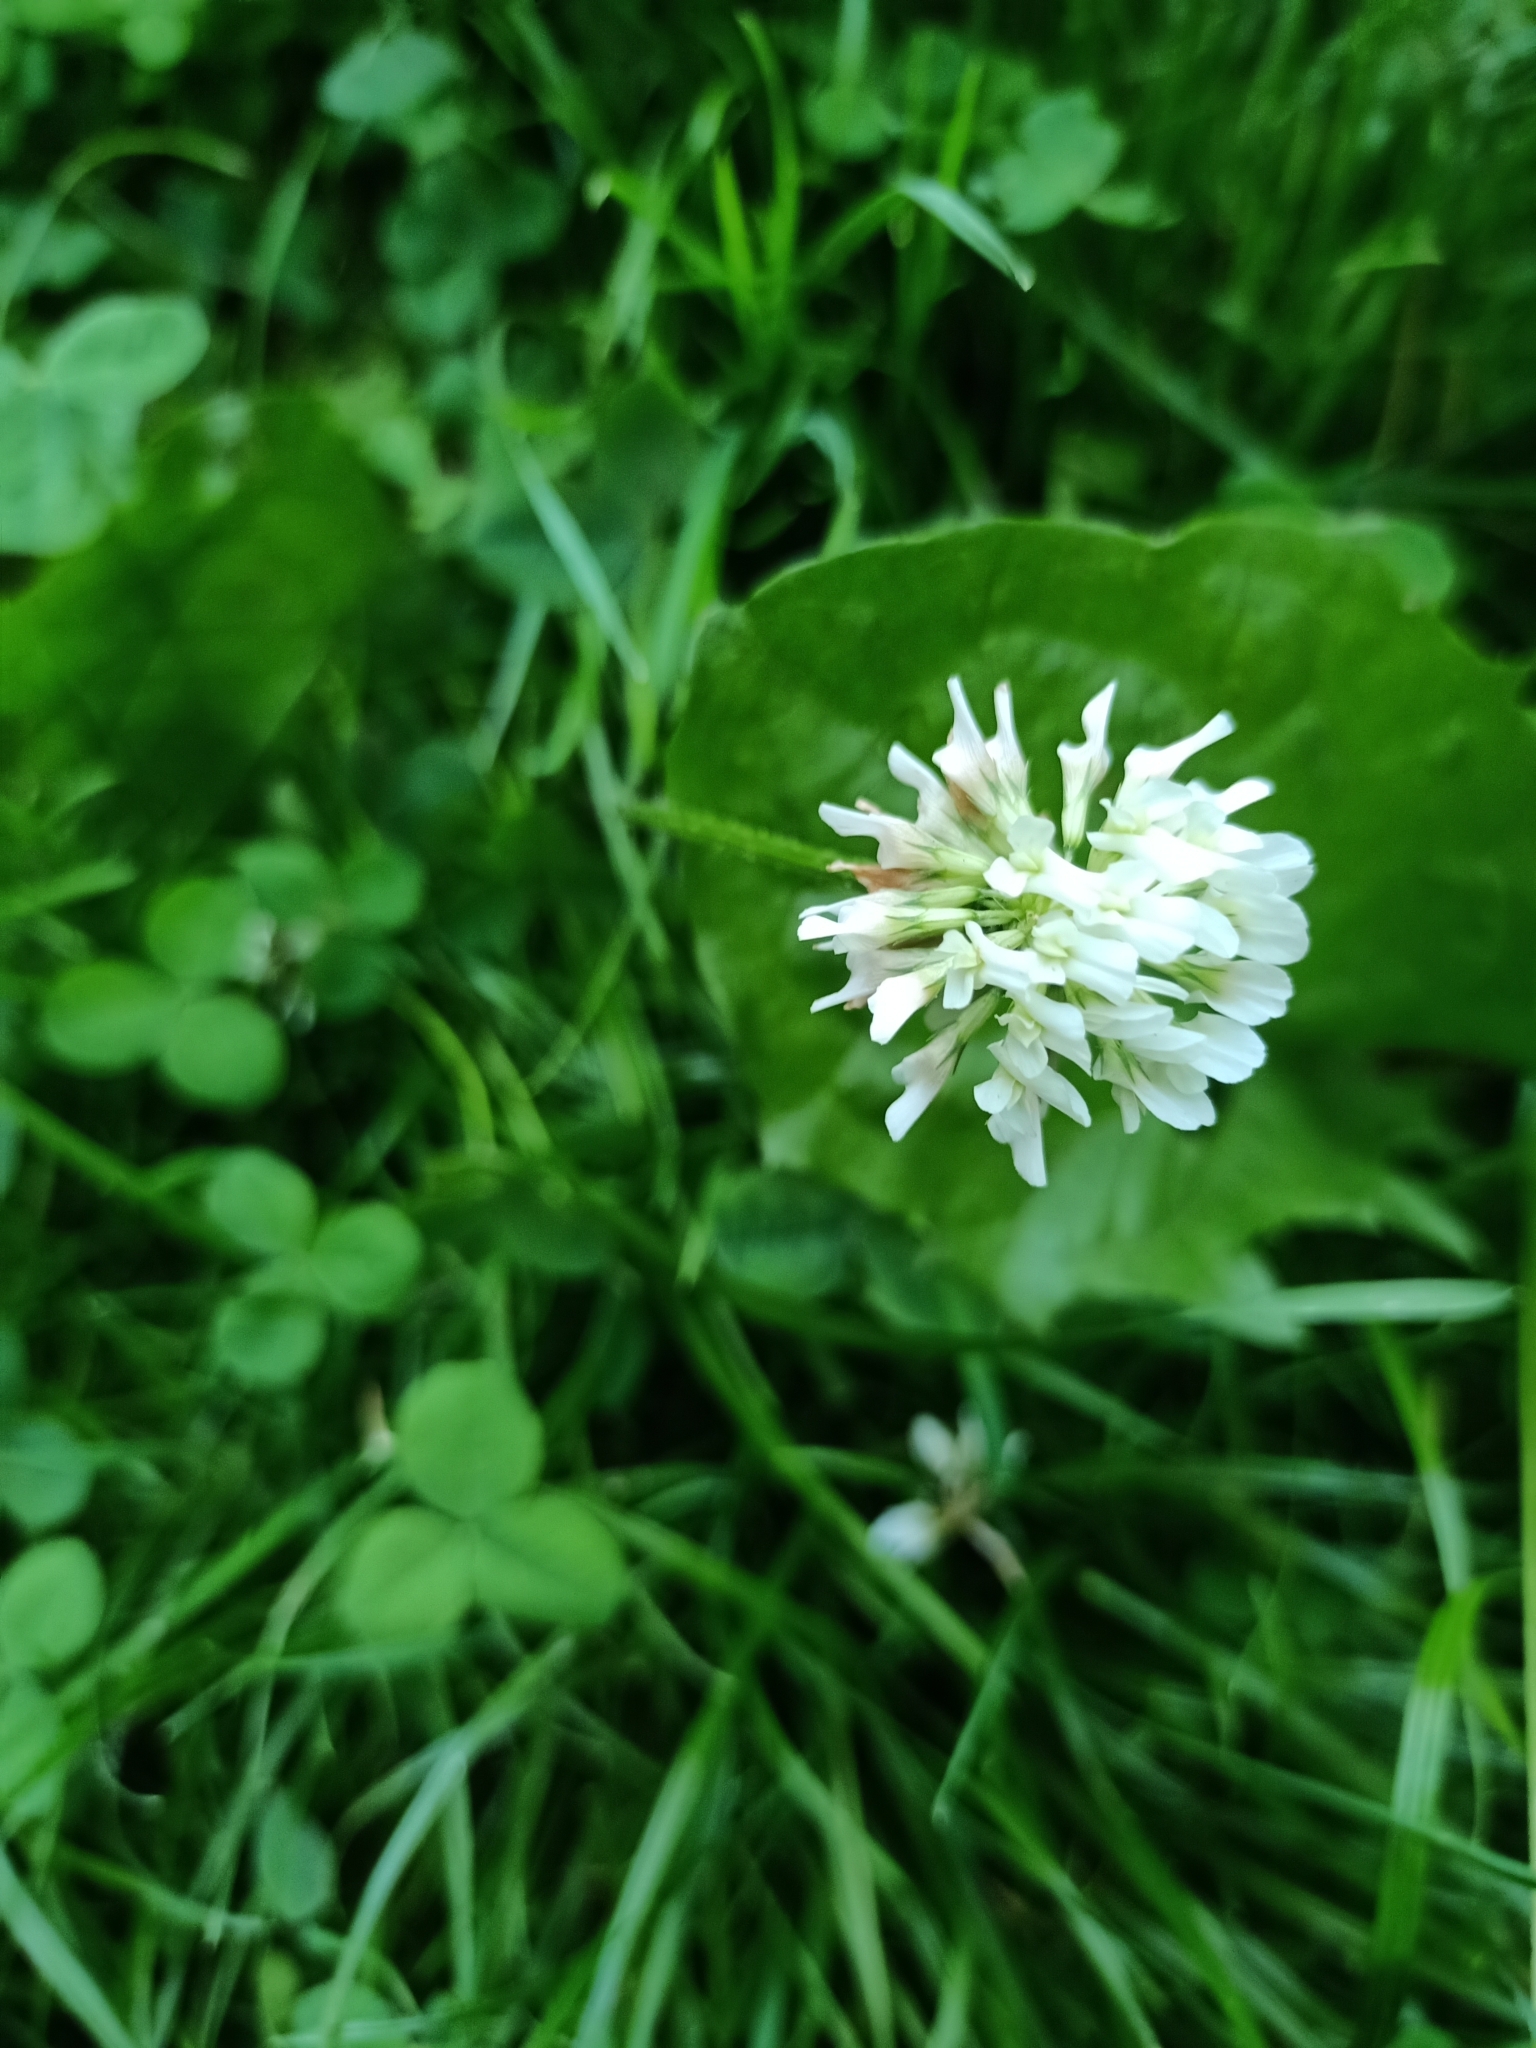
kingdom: Plantae
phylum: Tracheophyta
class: Magnoliopsida
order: Fabales
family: Fabaceae
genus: Trifolium
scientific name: Trifolium repens
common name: White clover
